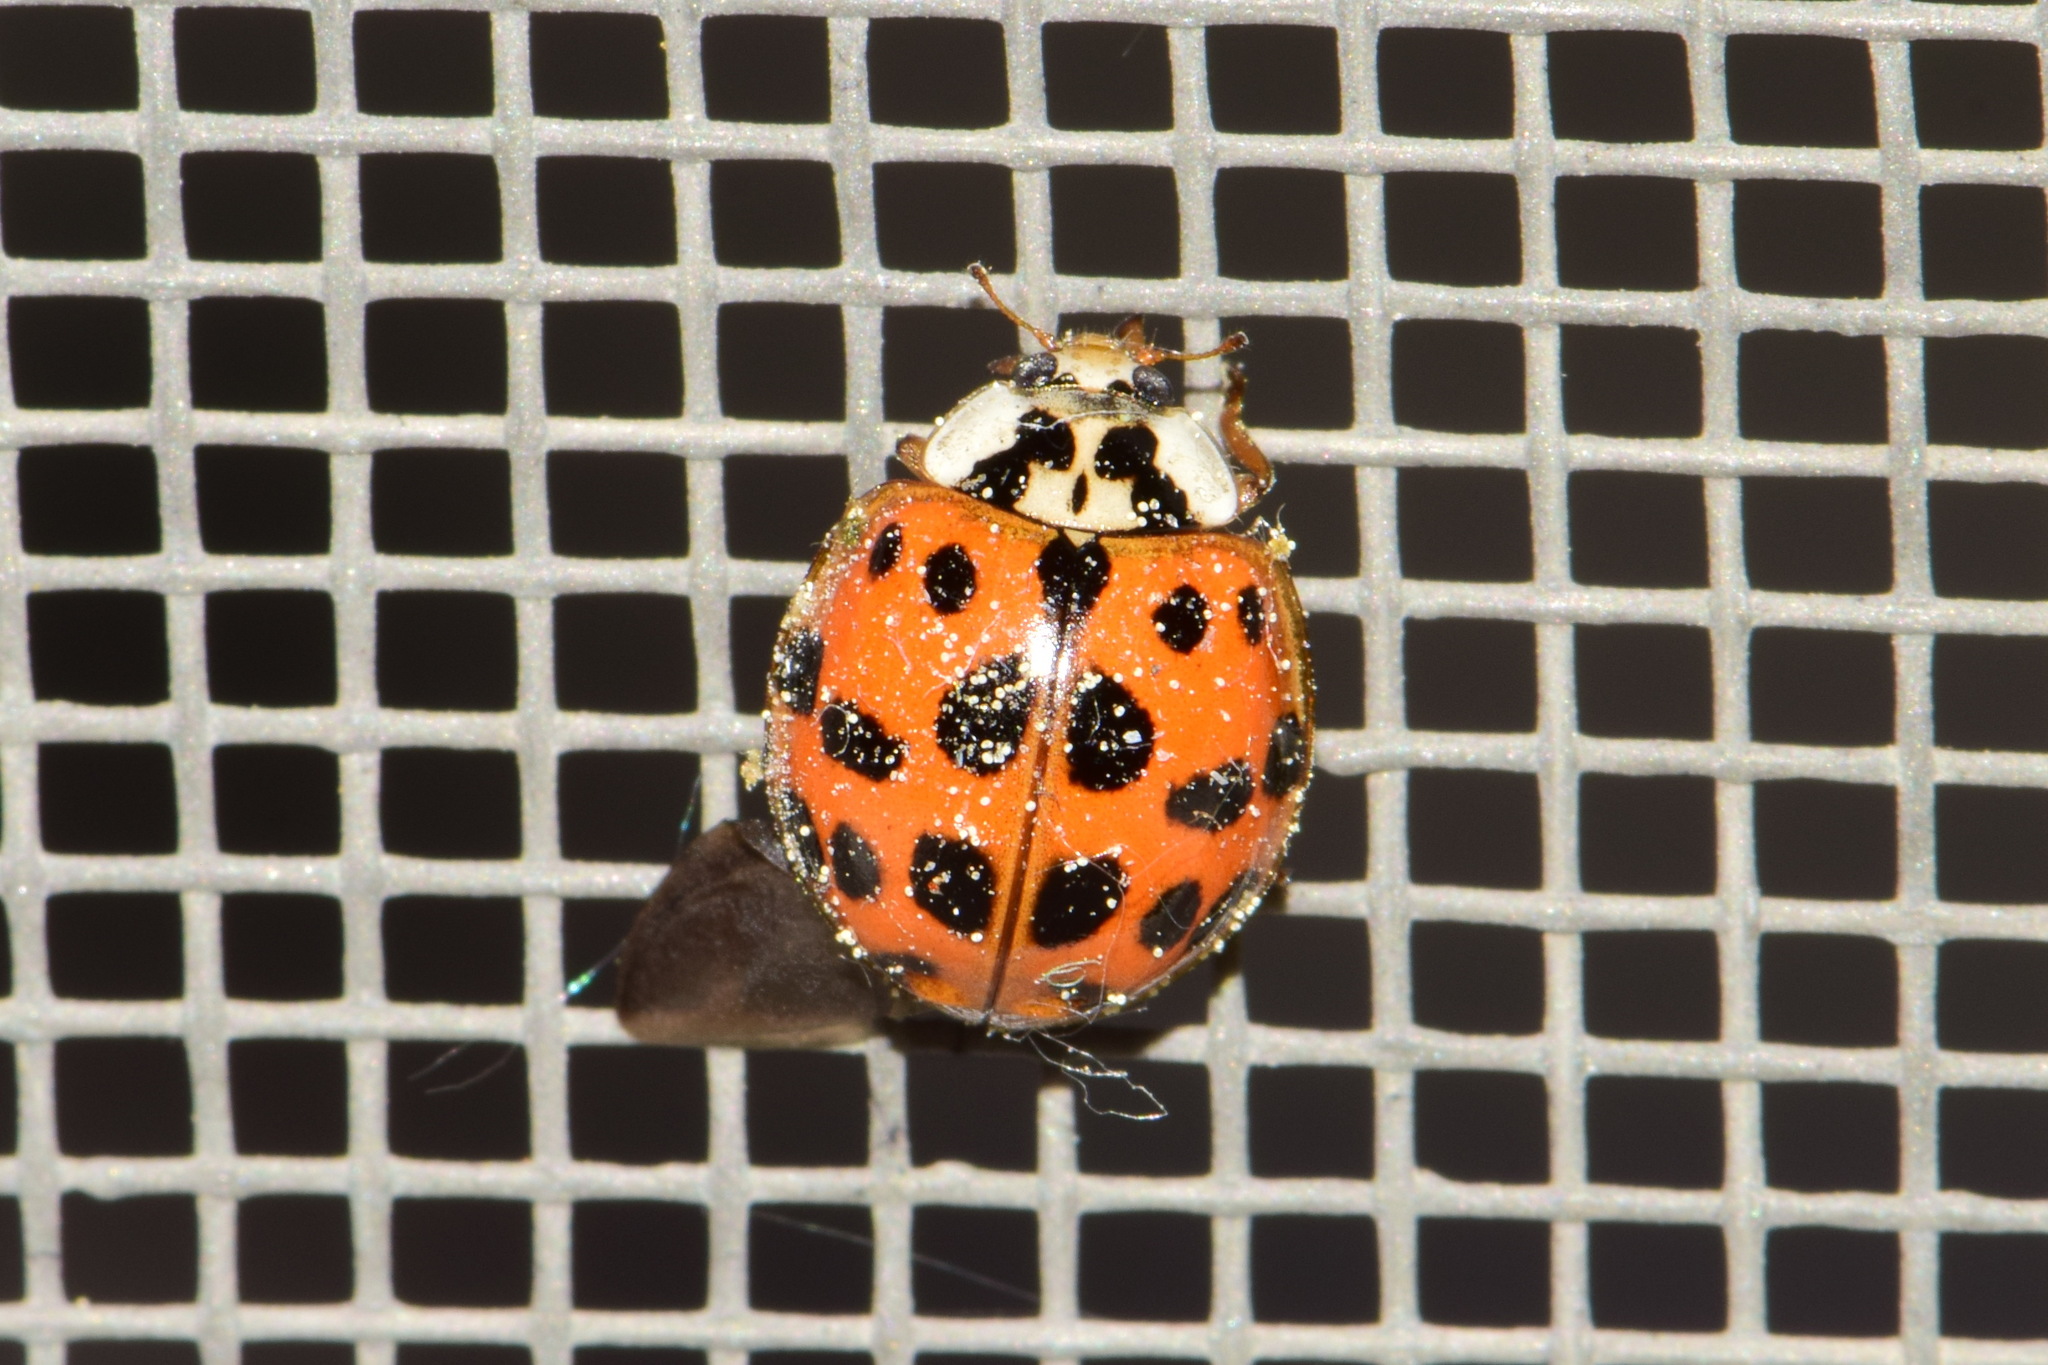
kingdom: Animalia
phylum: Arthropoda
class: Insecta
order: Coleoptera
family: Coccinellidae
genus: Harmonia
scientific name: Harmonia axyridis
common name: Harlequin ladybird
